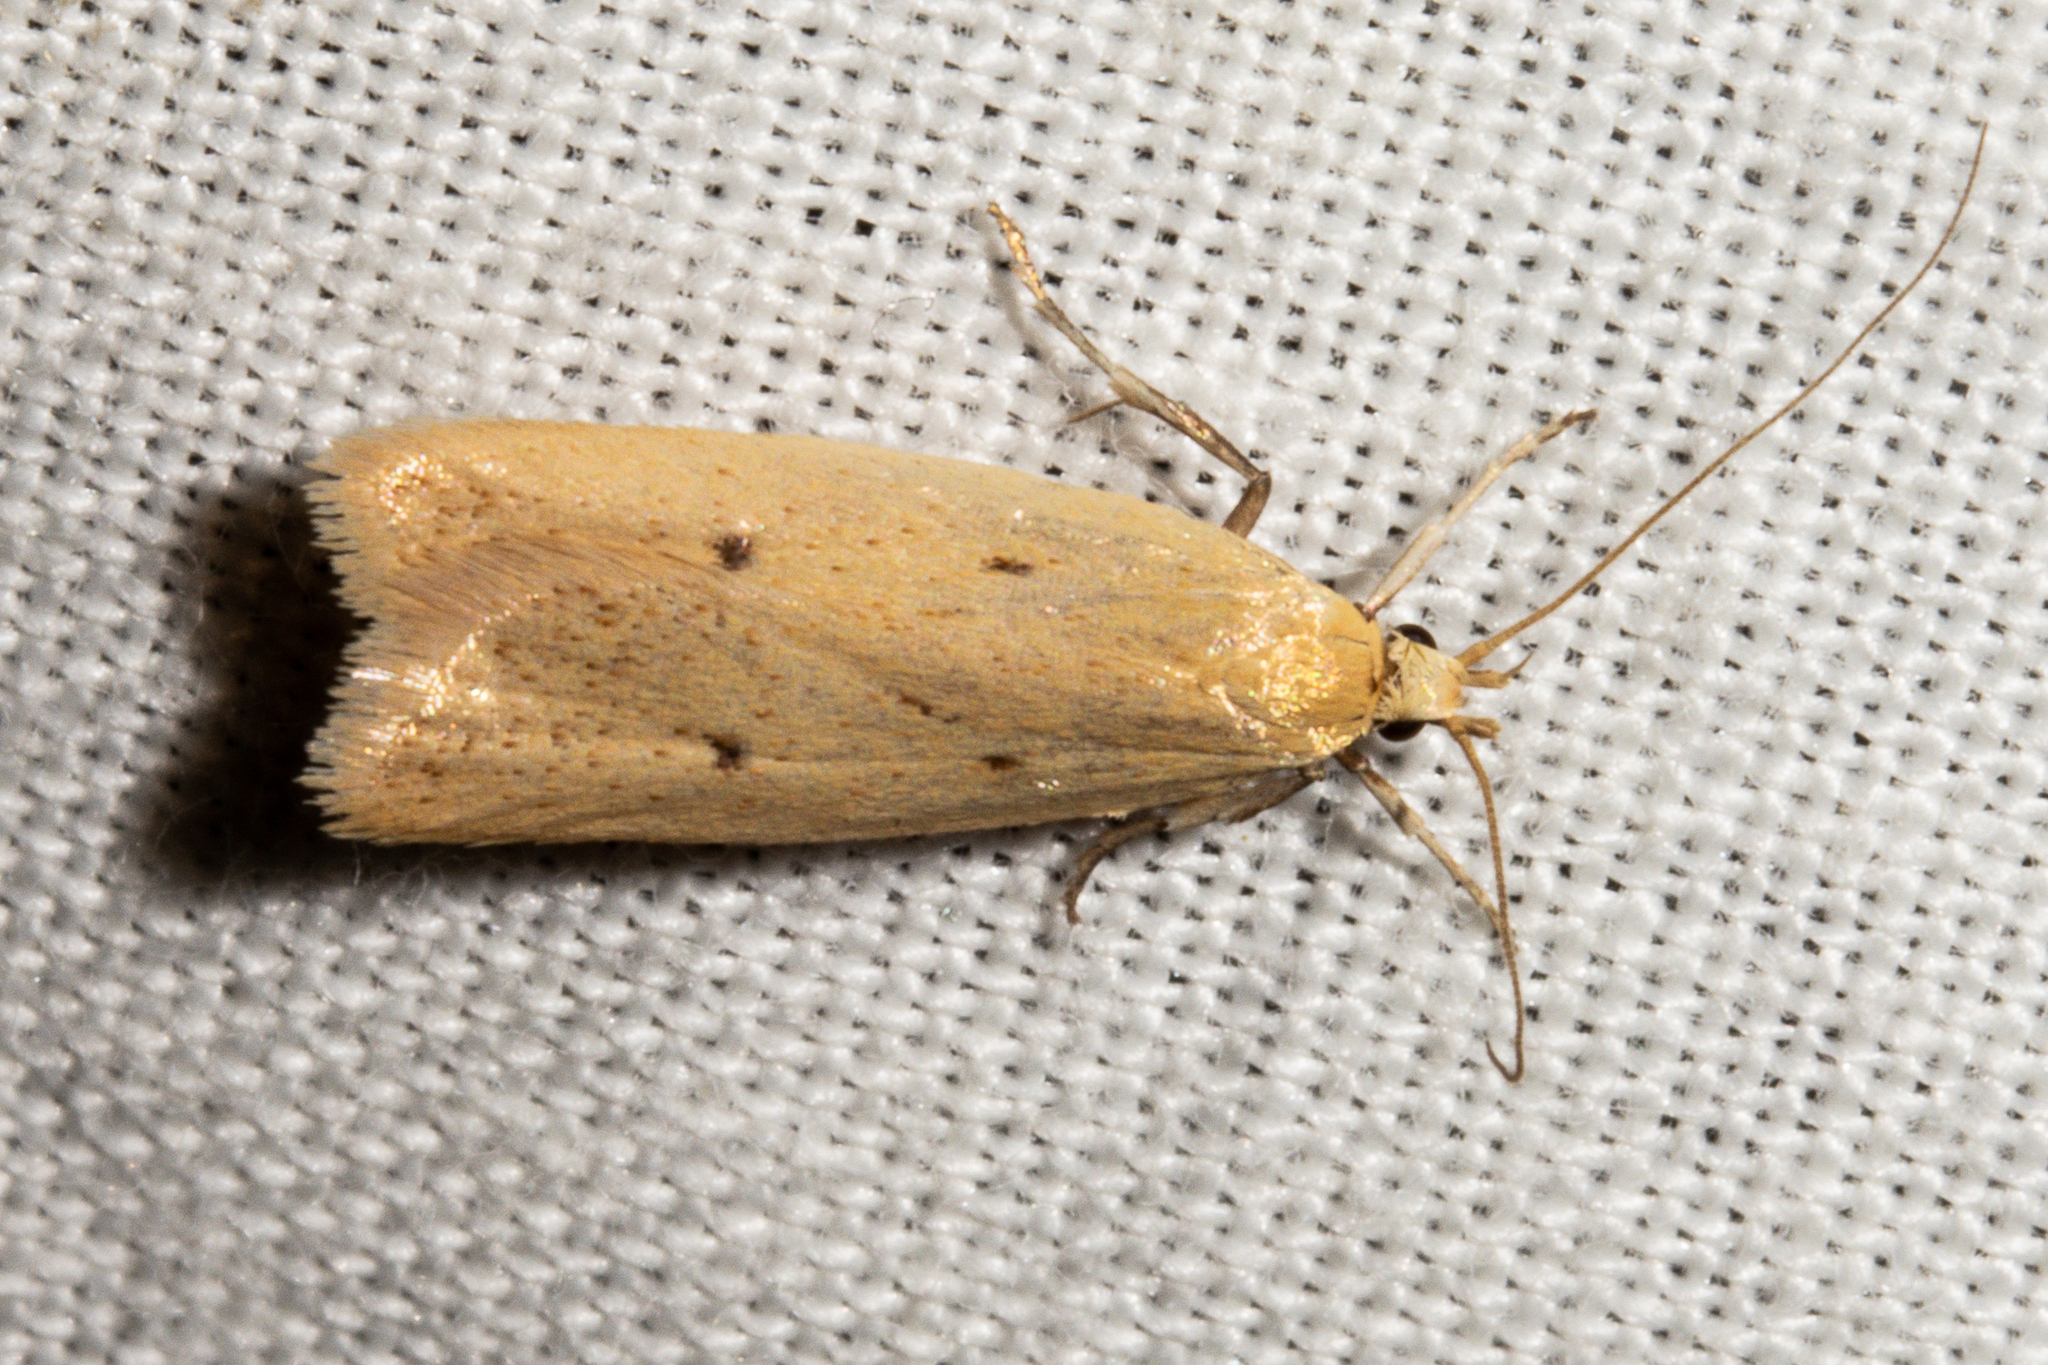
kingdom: Animalia
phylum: Arthropoda
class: Insecta
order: Lepidoptera
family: Oecophoridae
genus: Gymnobathra
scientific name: Gymnobathra sarcoxantha
